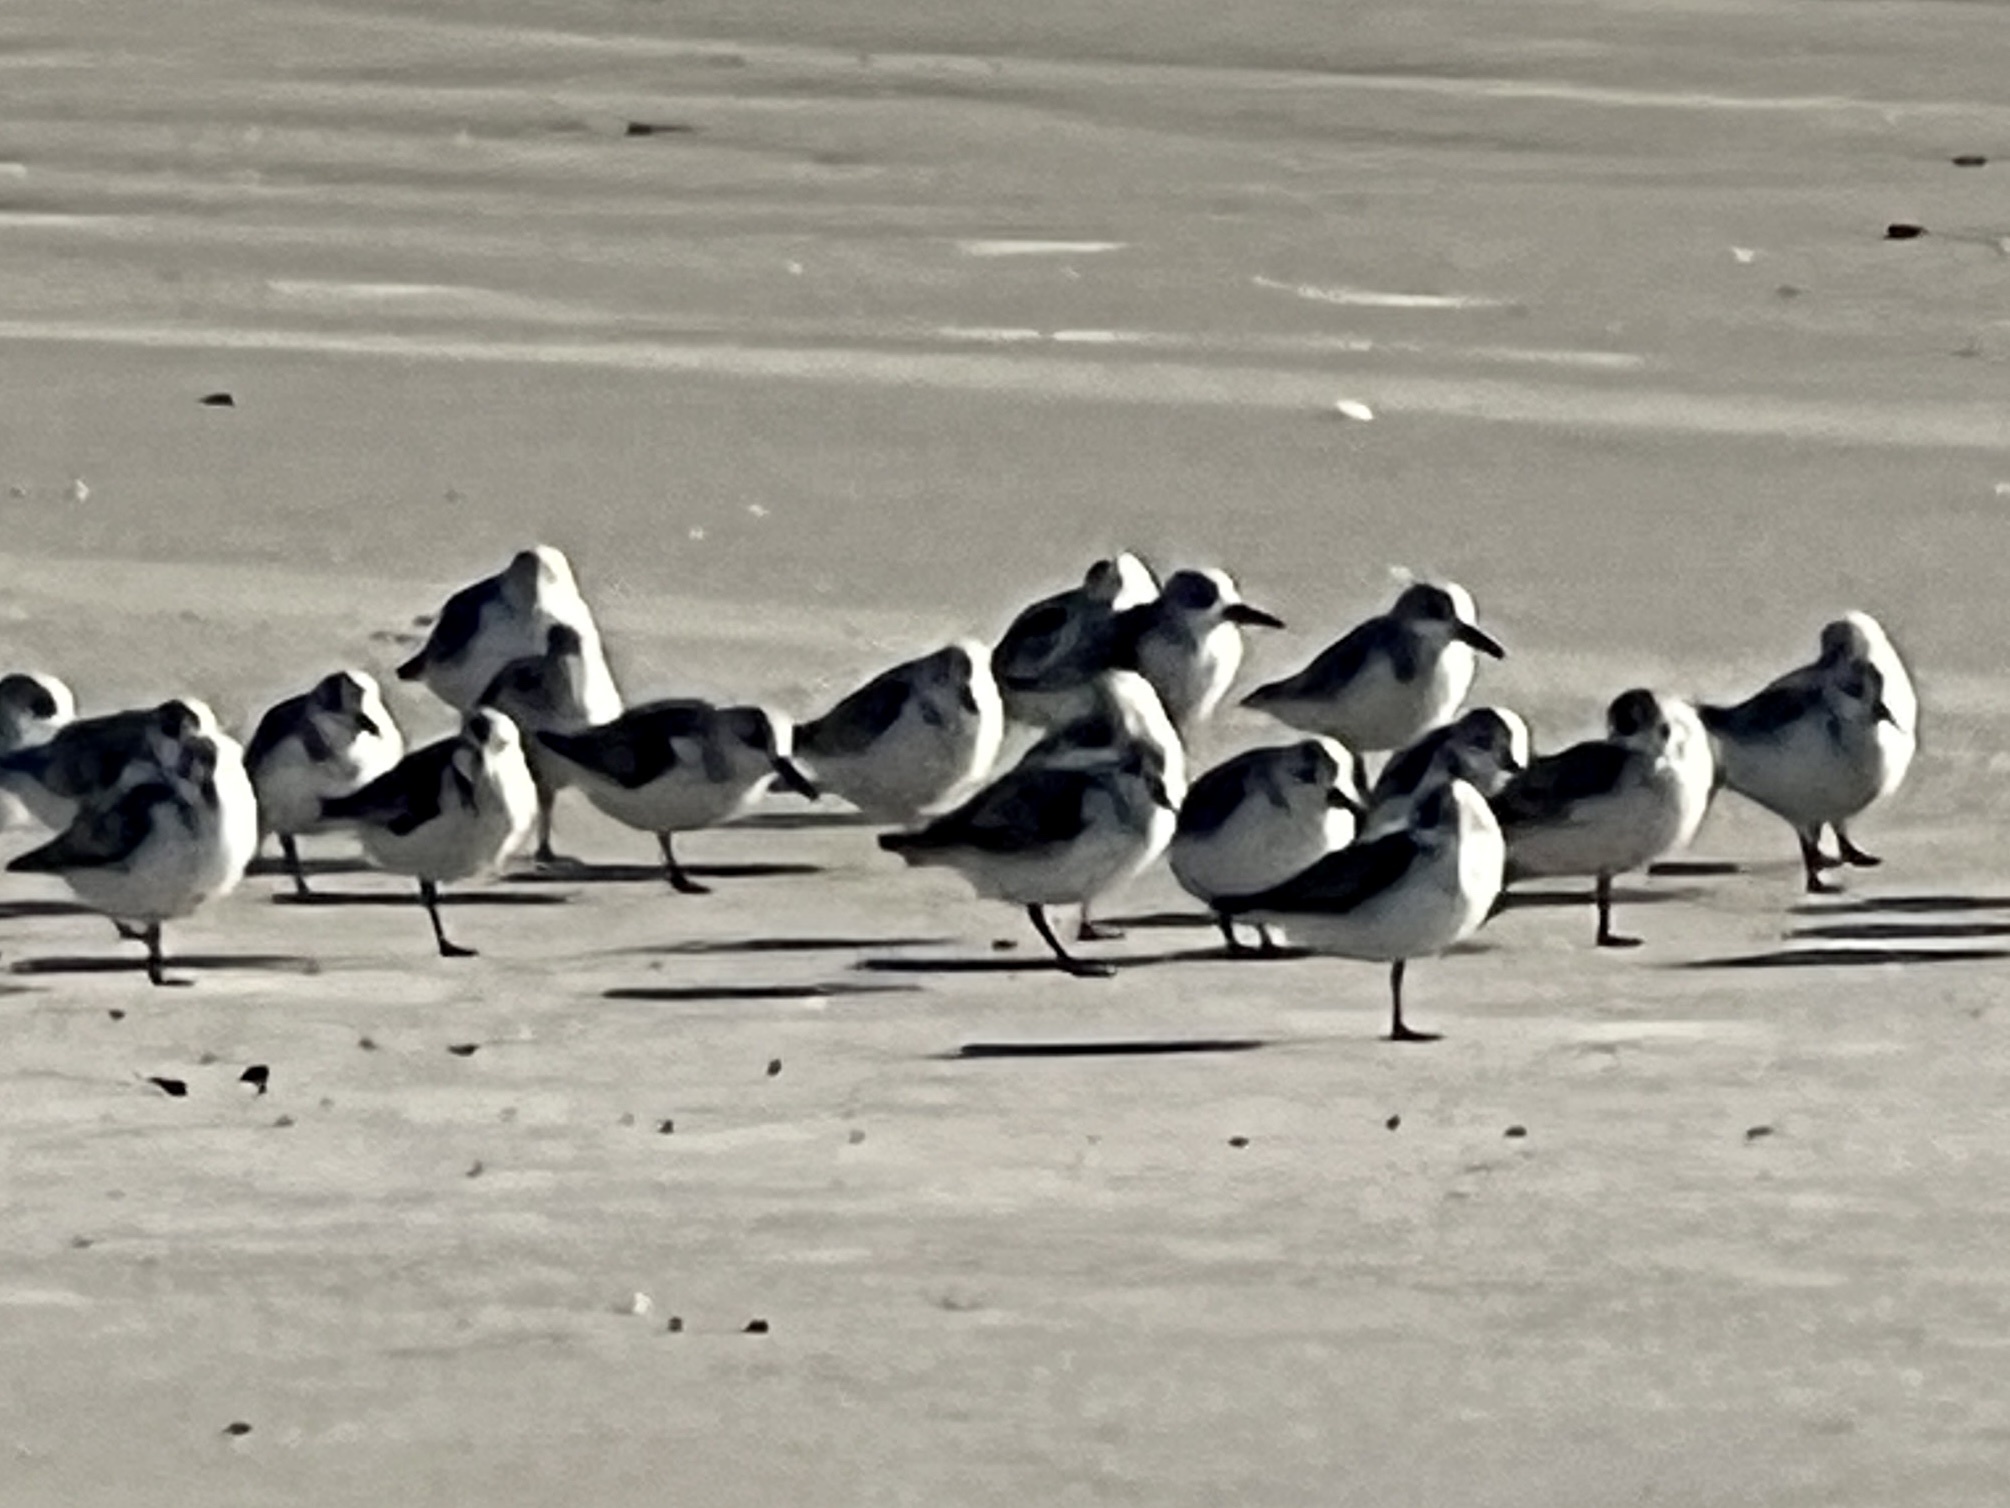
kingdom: Animalia
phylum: Chordata
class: Aves
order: Charadriiformes
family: Scolopacidae
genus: Calidris
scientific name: Calidris alba
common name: Sanderling
